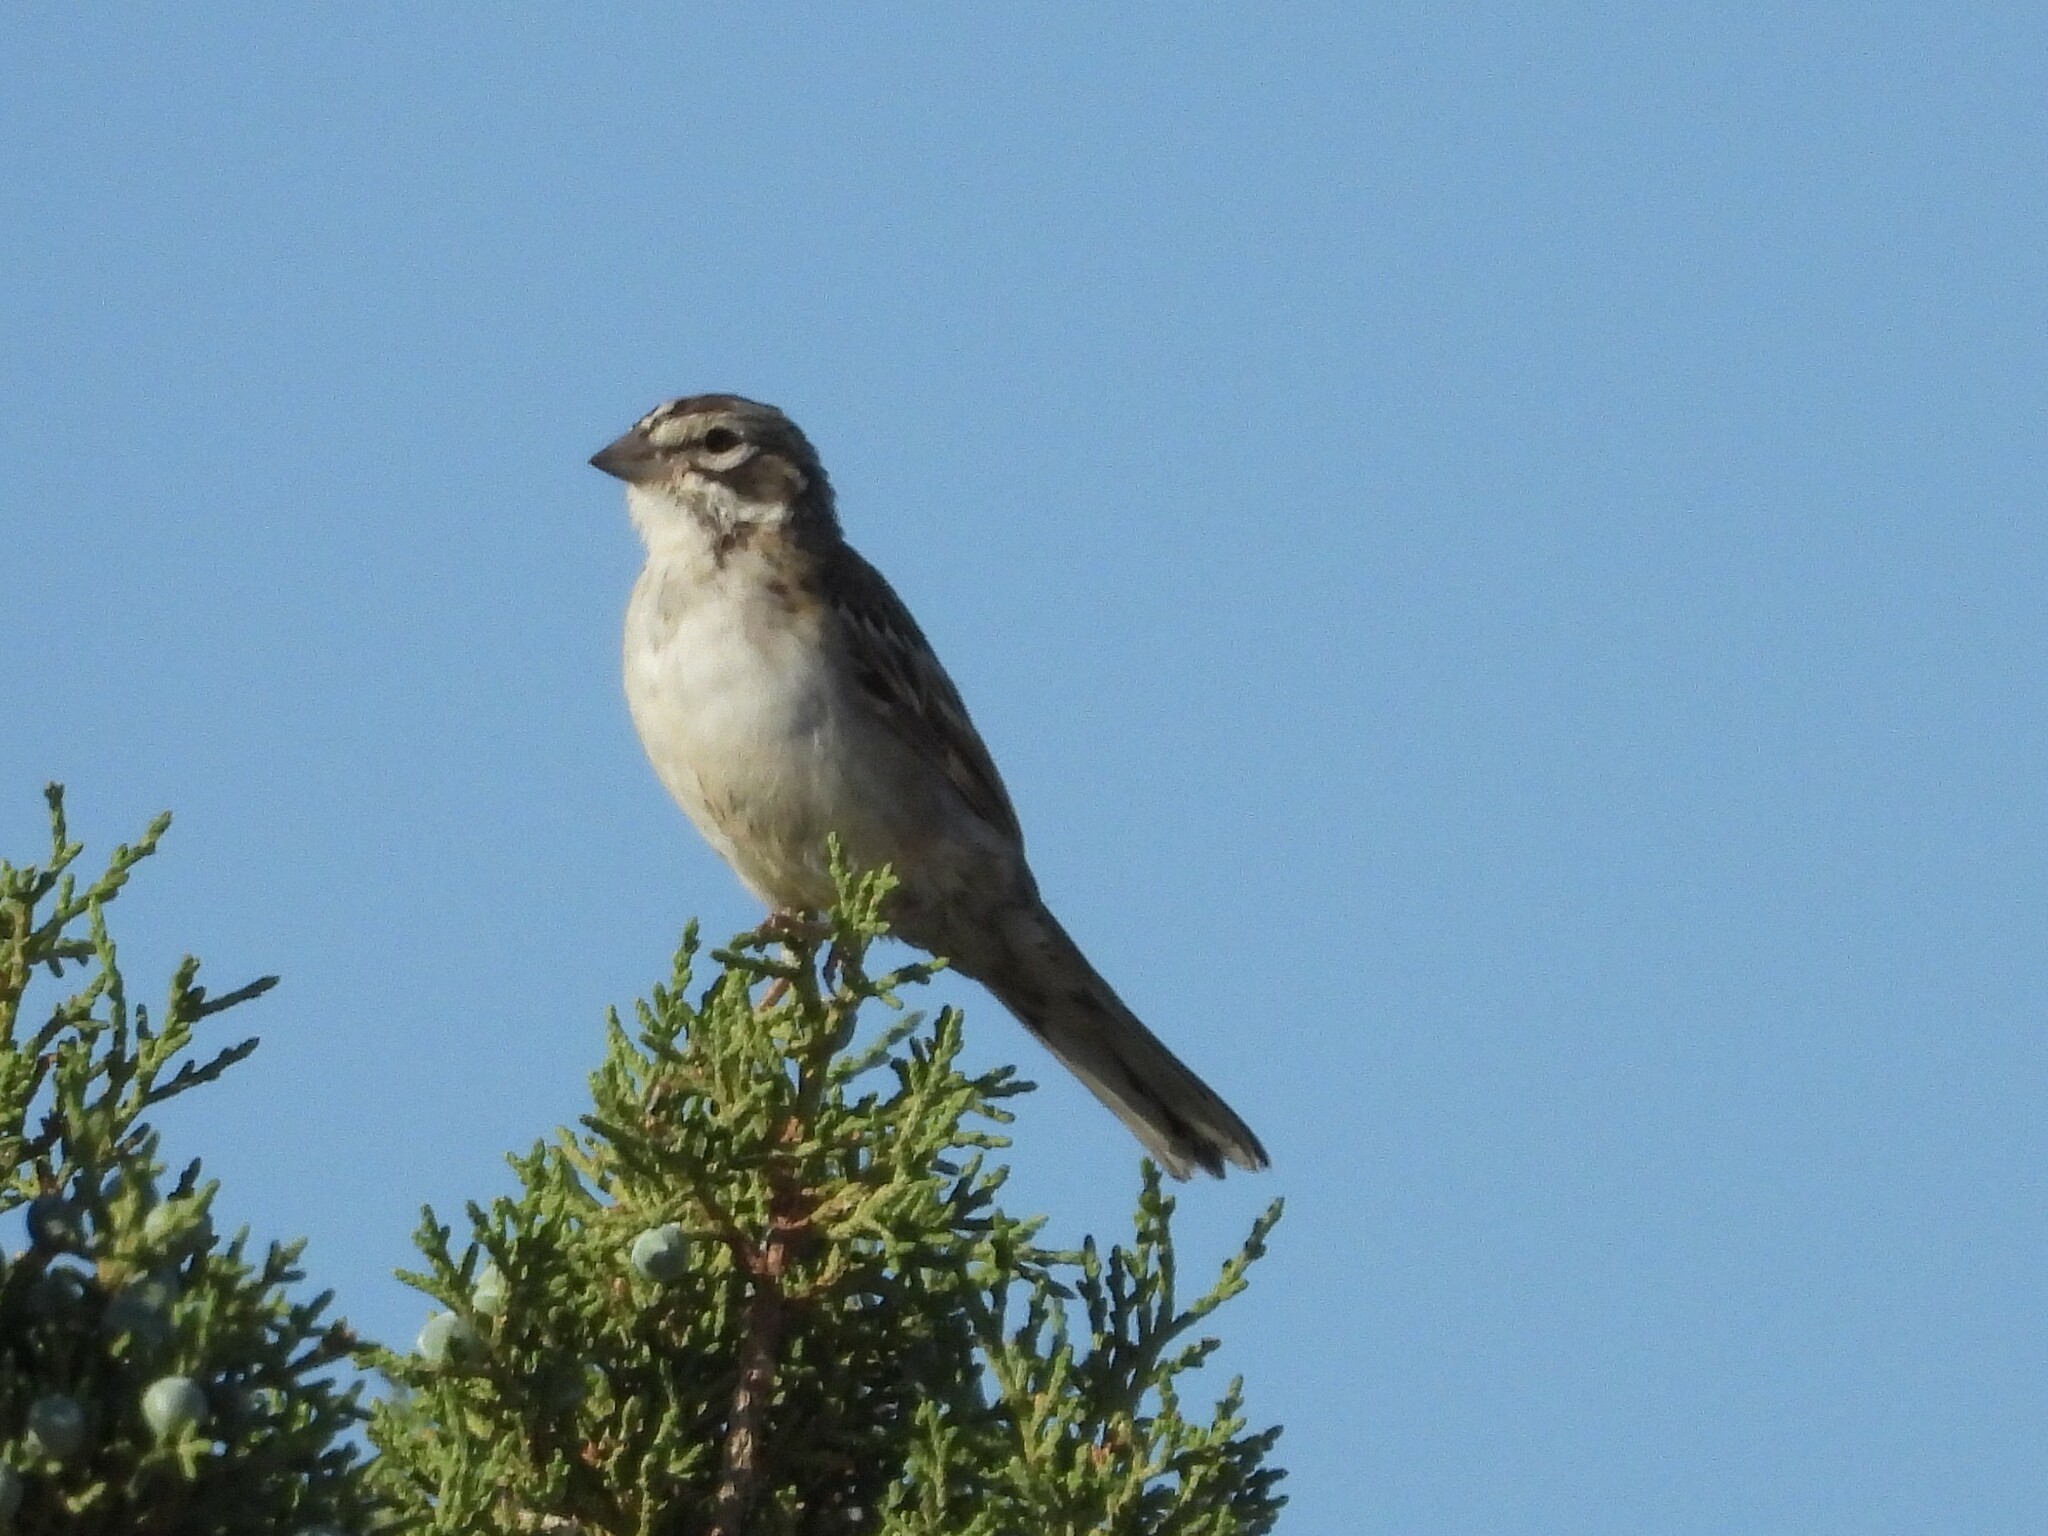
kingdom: Animalia
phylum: Chordata
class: Aves
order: Passeriformes
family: Passerellidae
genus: Chondestes
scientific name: Chondestes grammacus
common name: Lark sparrow
